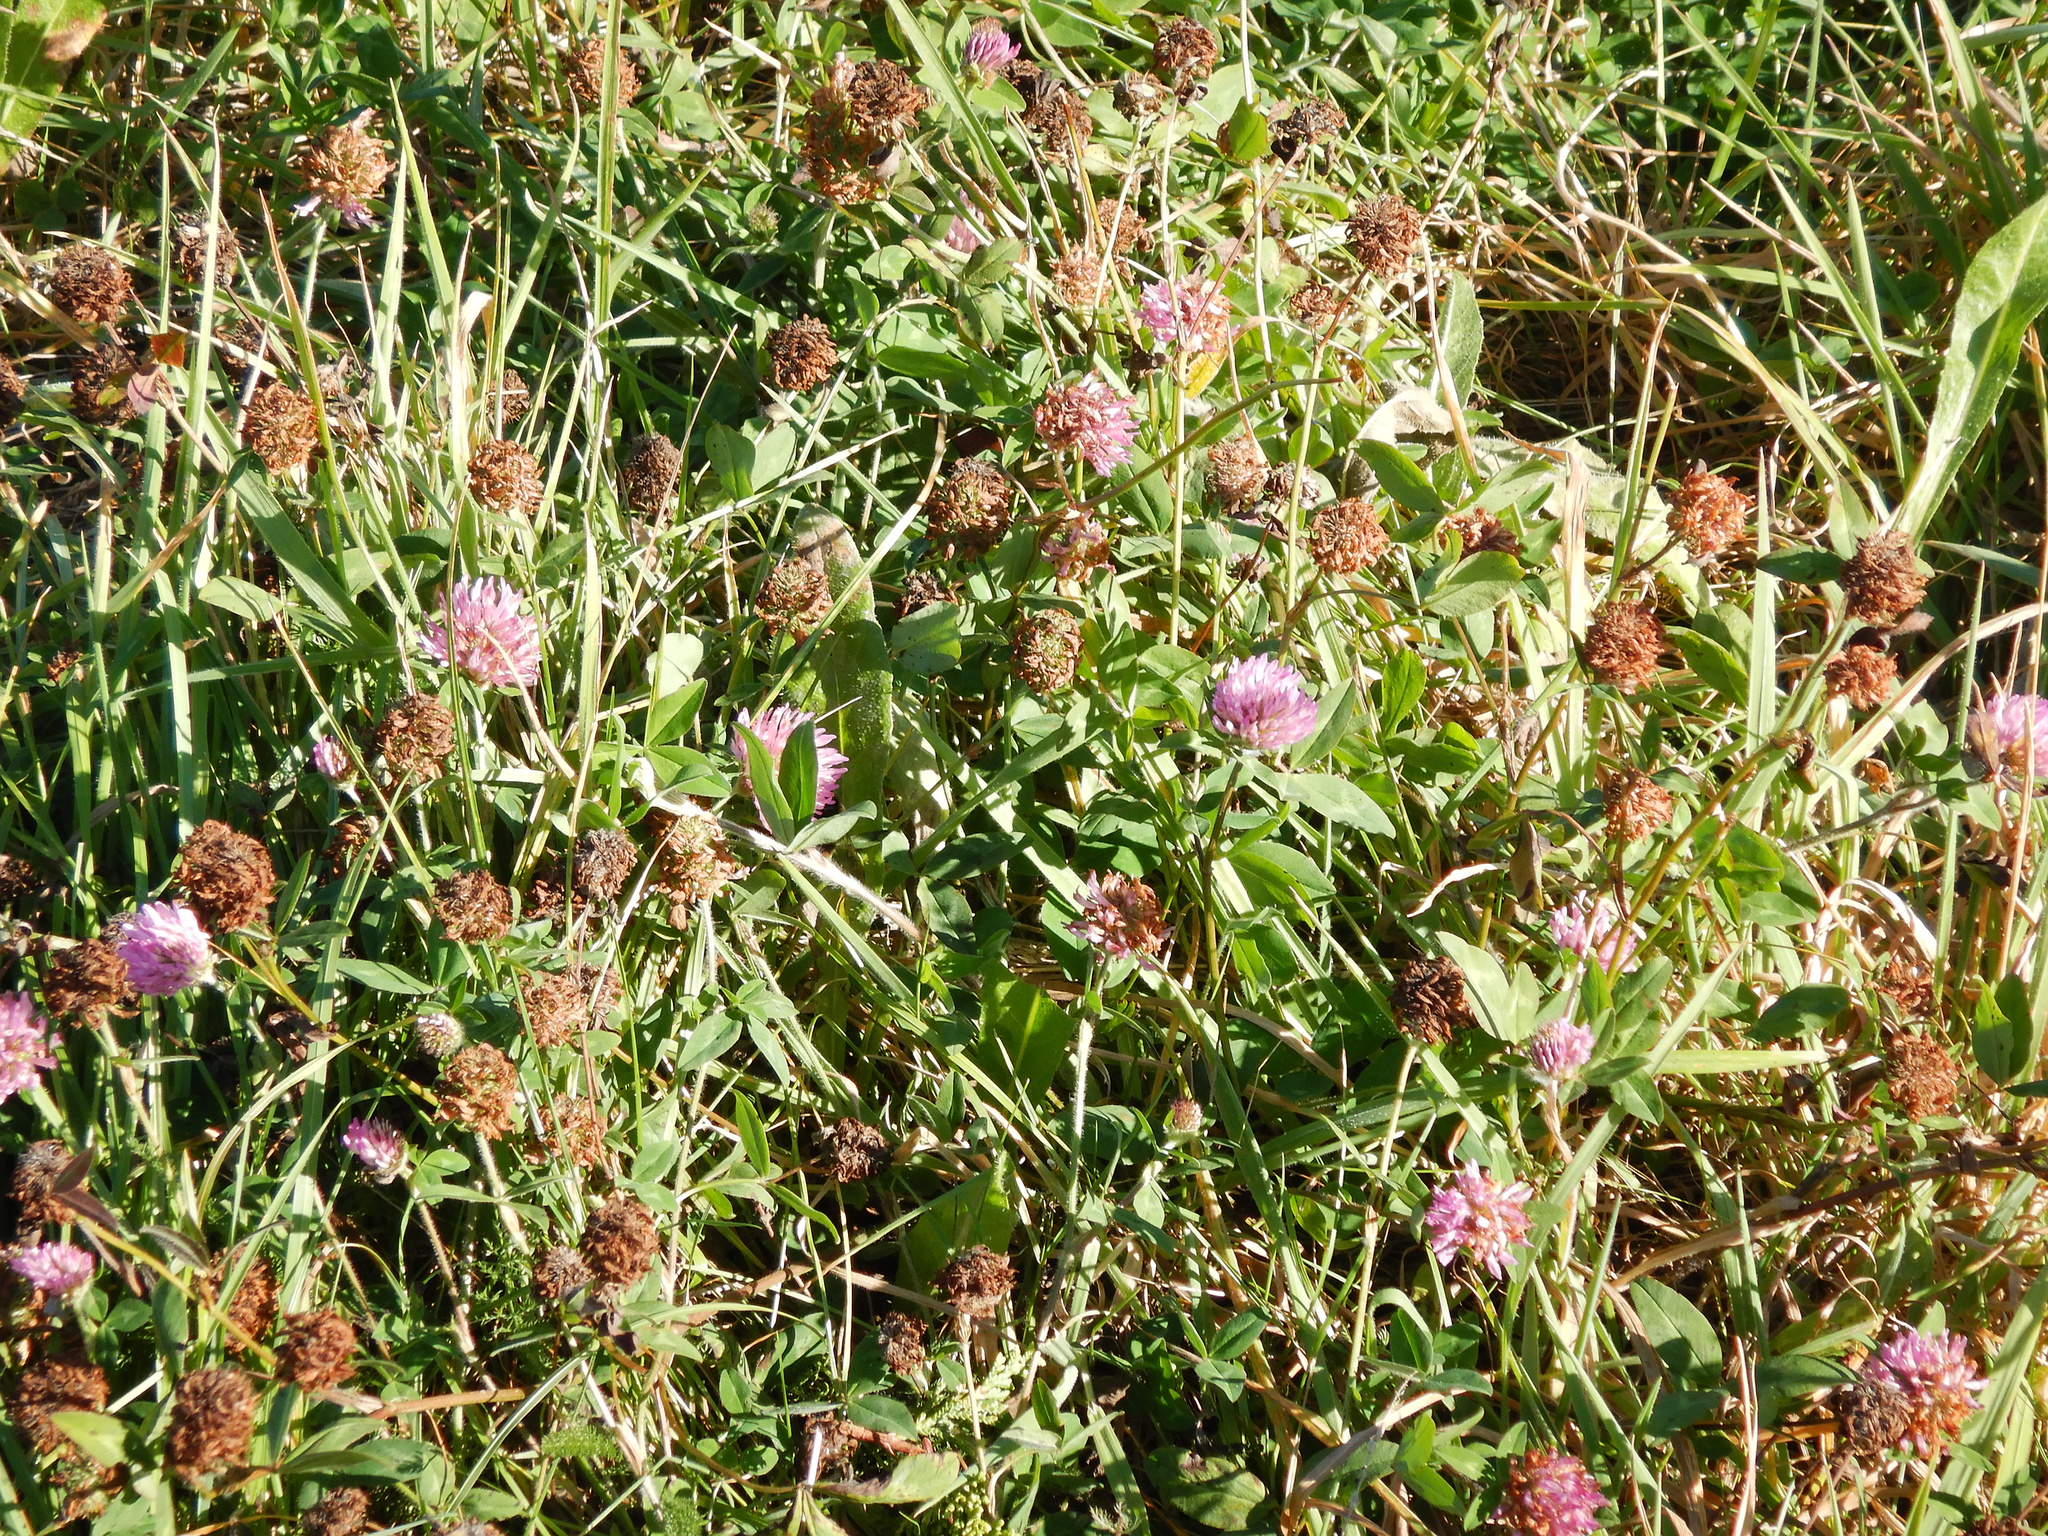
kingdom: Plantae
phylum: Tracheophyta
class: Magnoliopsida
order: Fabales
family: Fabaceae
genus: Trifolium
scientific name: Trifolium pratense
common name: Red clover
